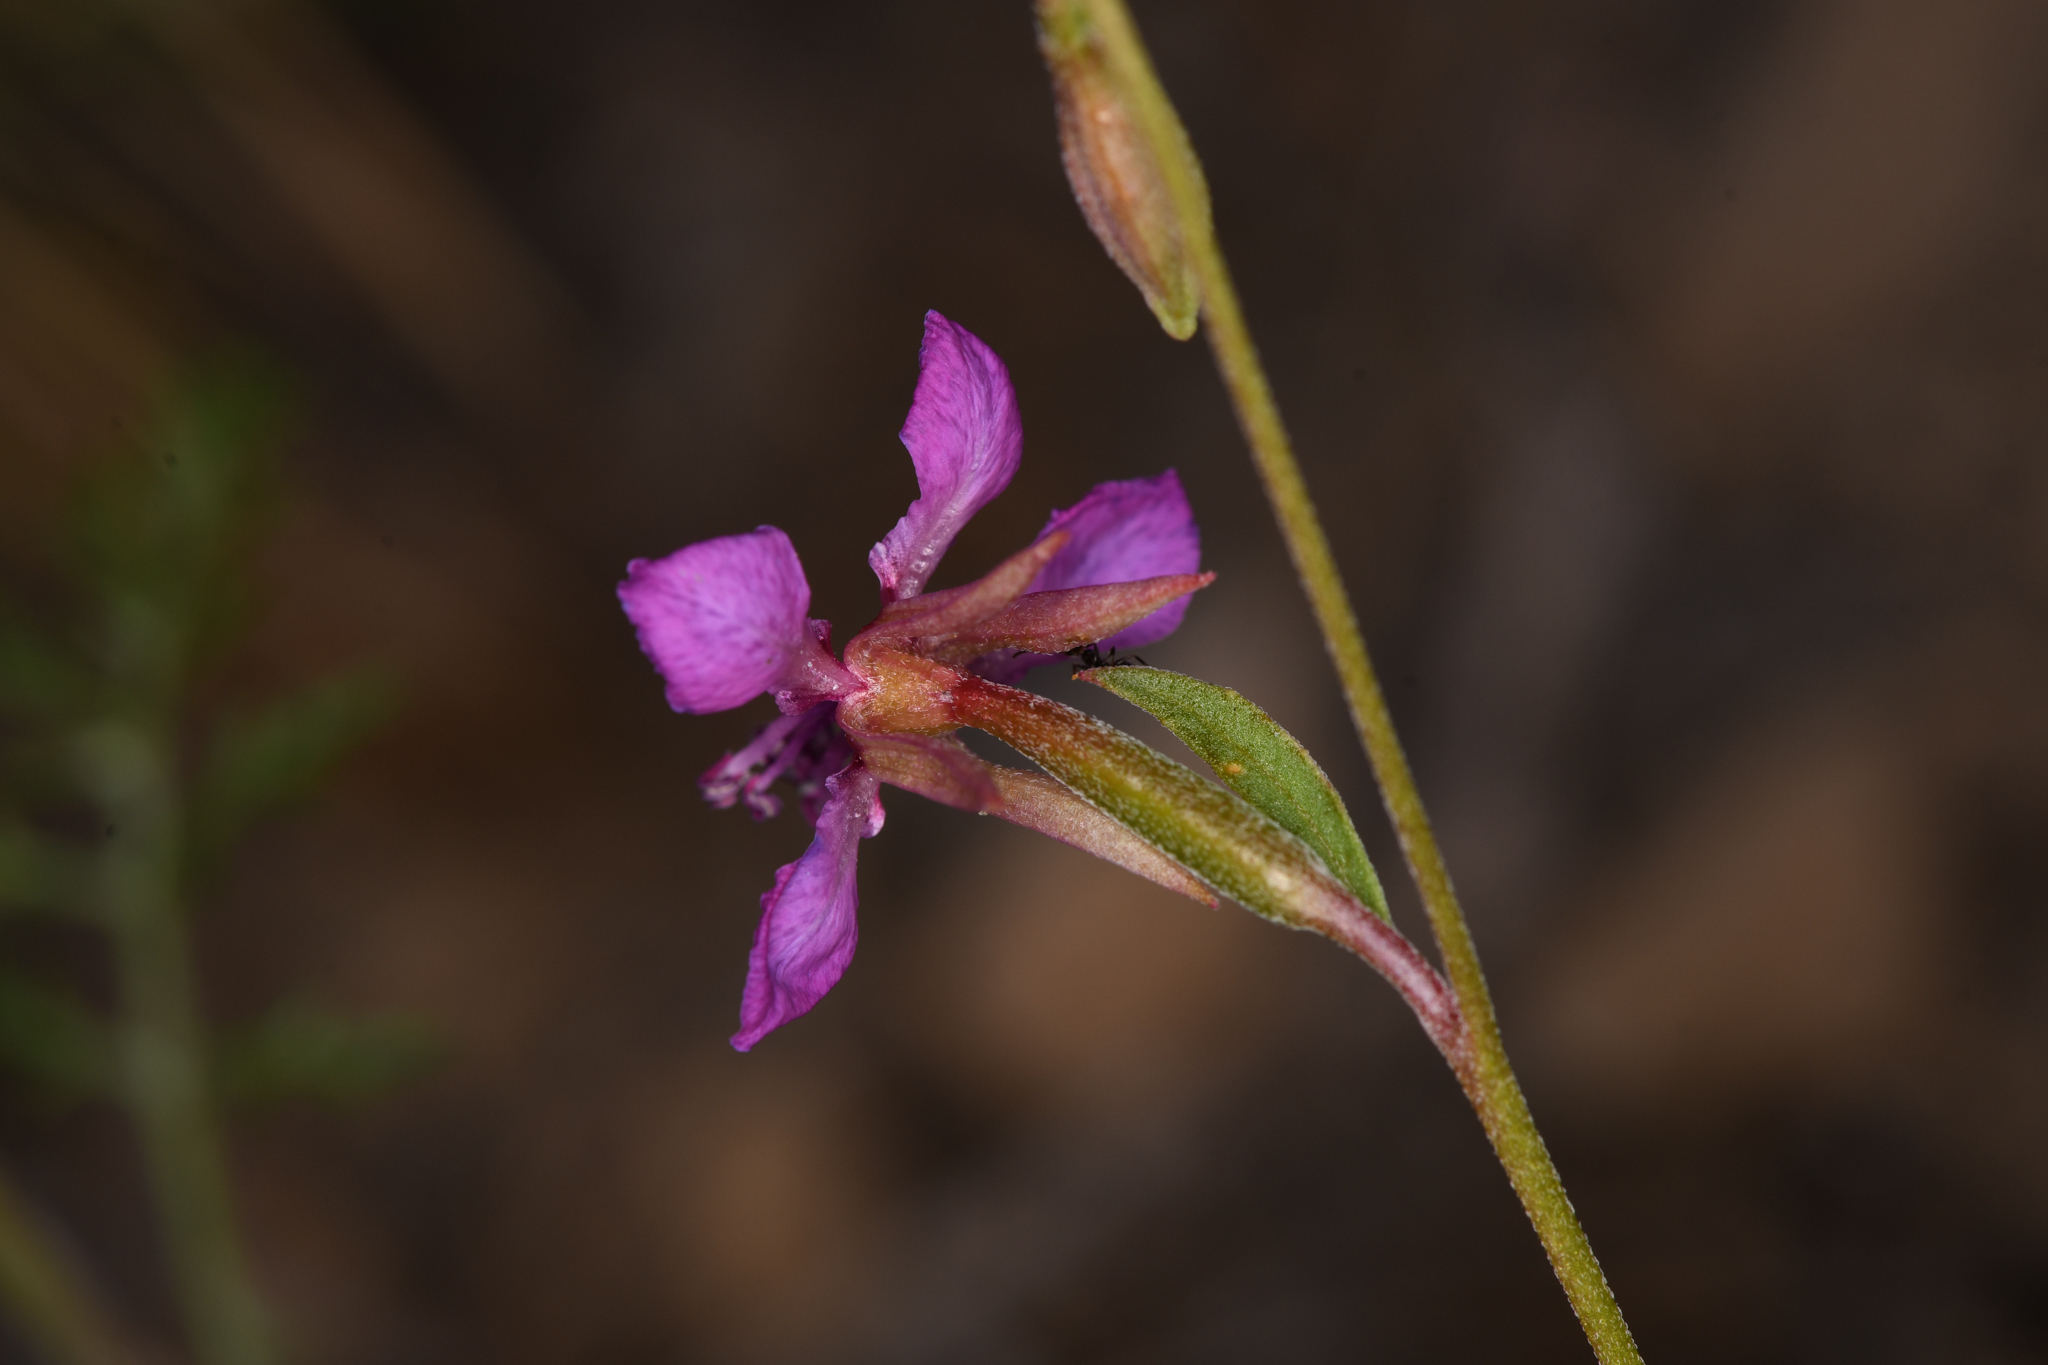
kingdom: Plantae
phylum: Tracheophyta
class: Magnoliopsida
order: Myrtales
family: Onagraceae
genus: Clarkia
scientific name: Clarkia rhomboidea
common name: Broadleaf clarkia
